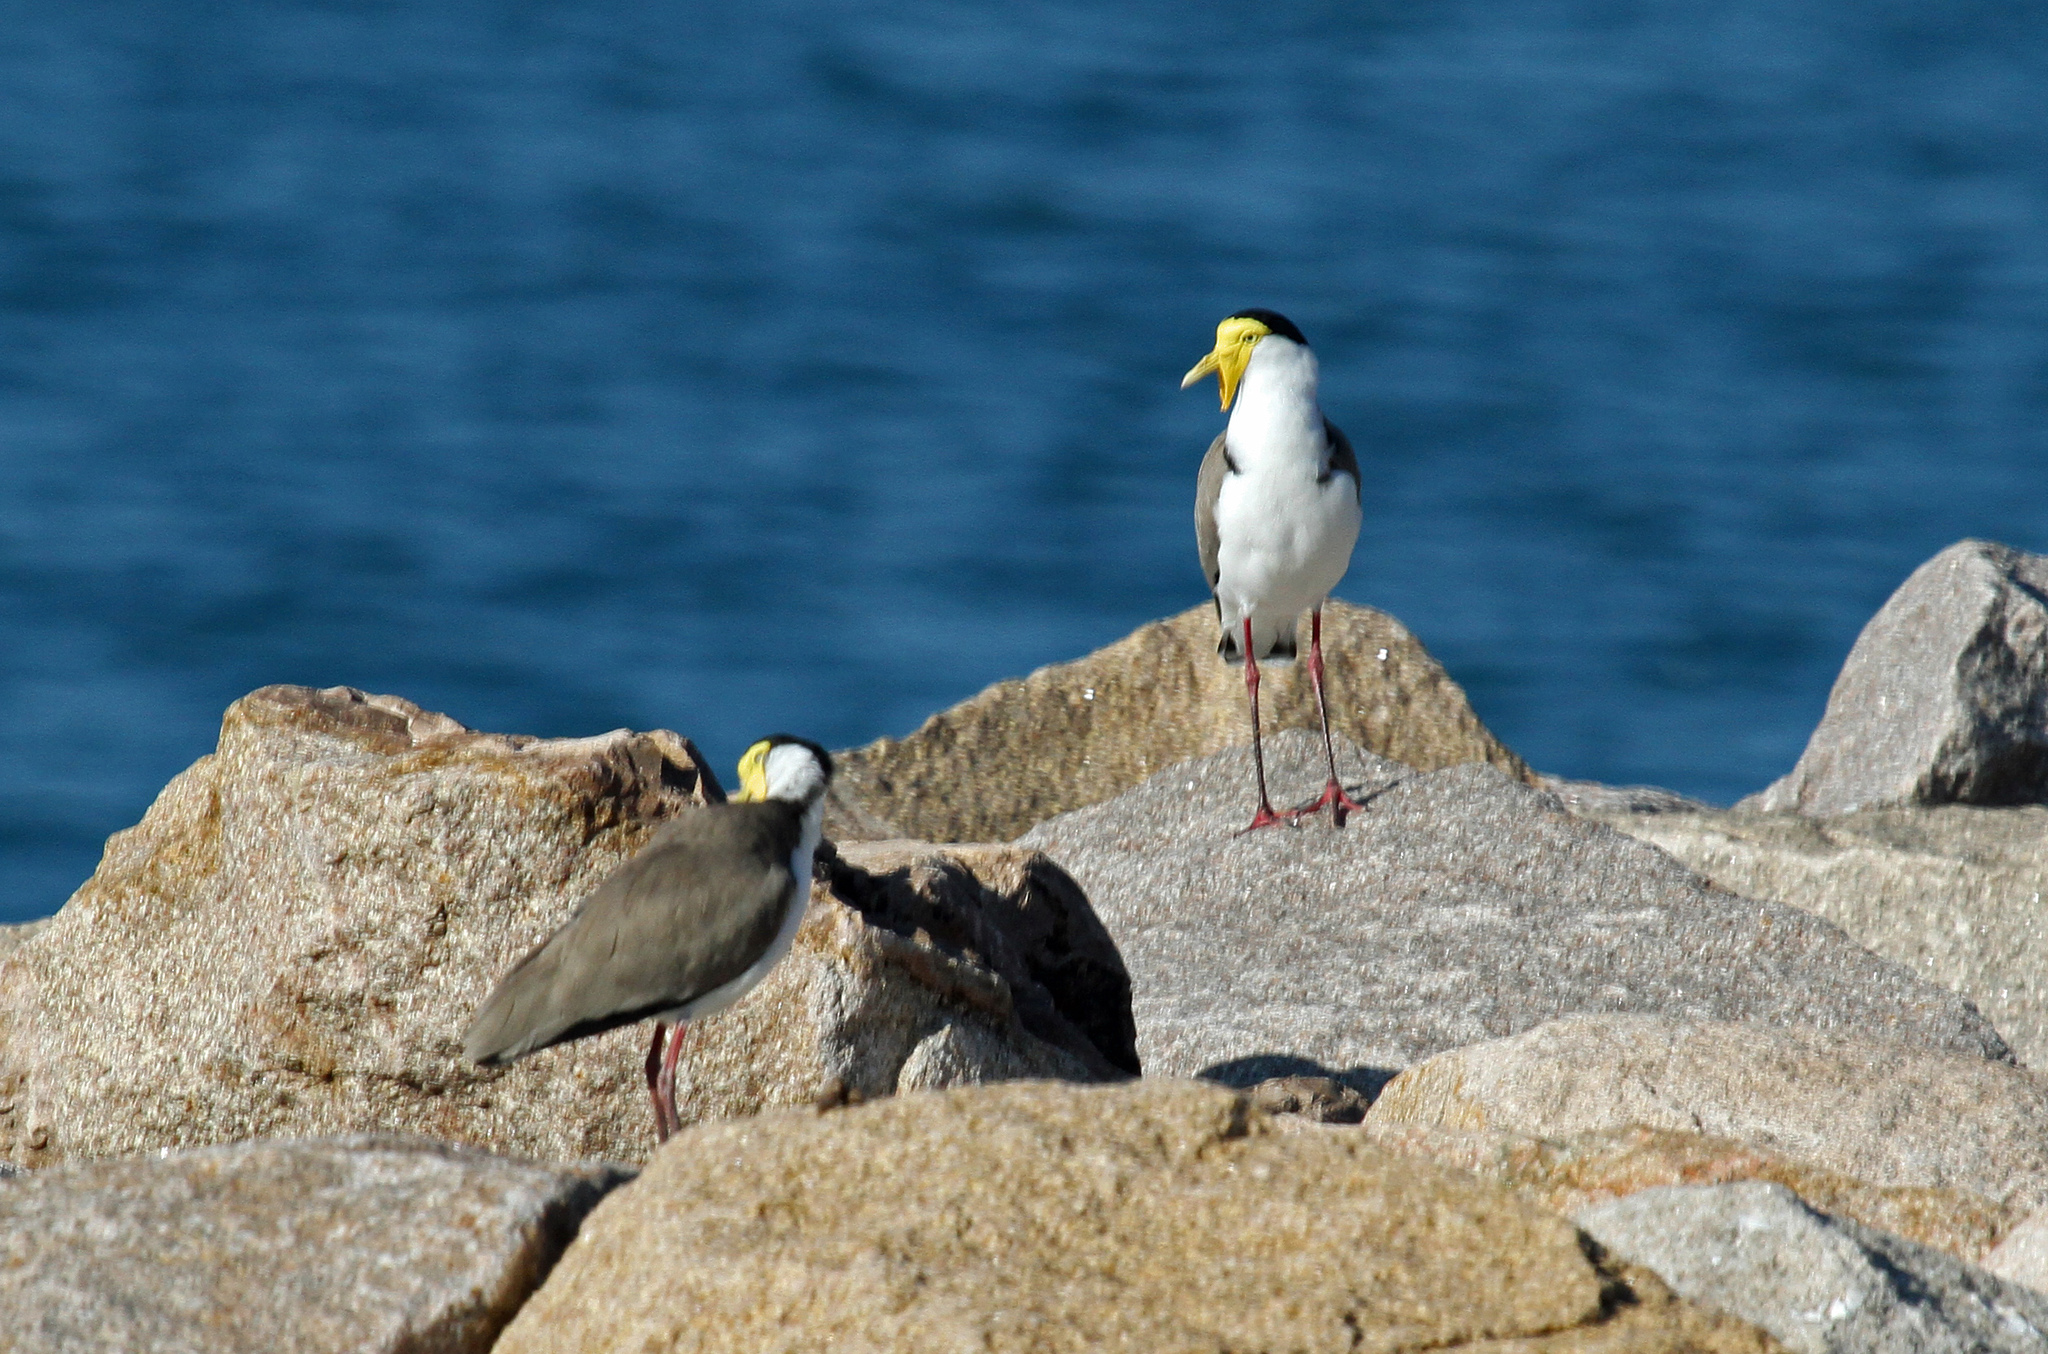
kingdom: Animalia
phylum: Chordata
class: Aves
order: Charadriiformes
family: Charadriidae
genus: Vanellus
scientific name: Vanellus miles
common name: Masked lapwing
